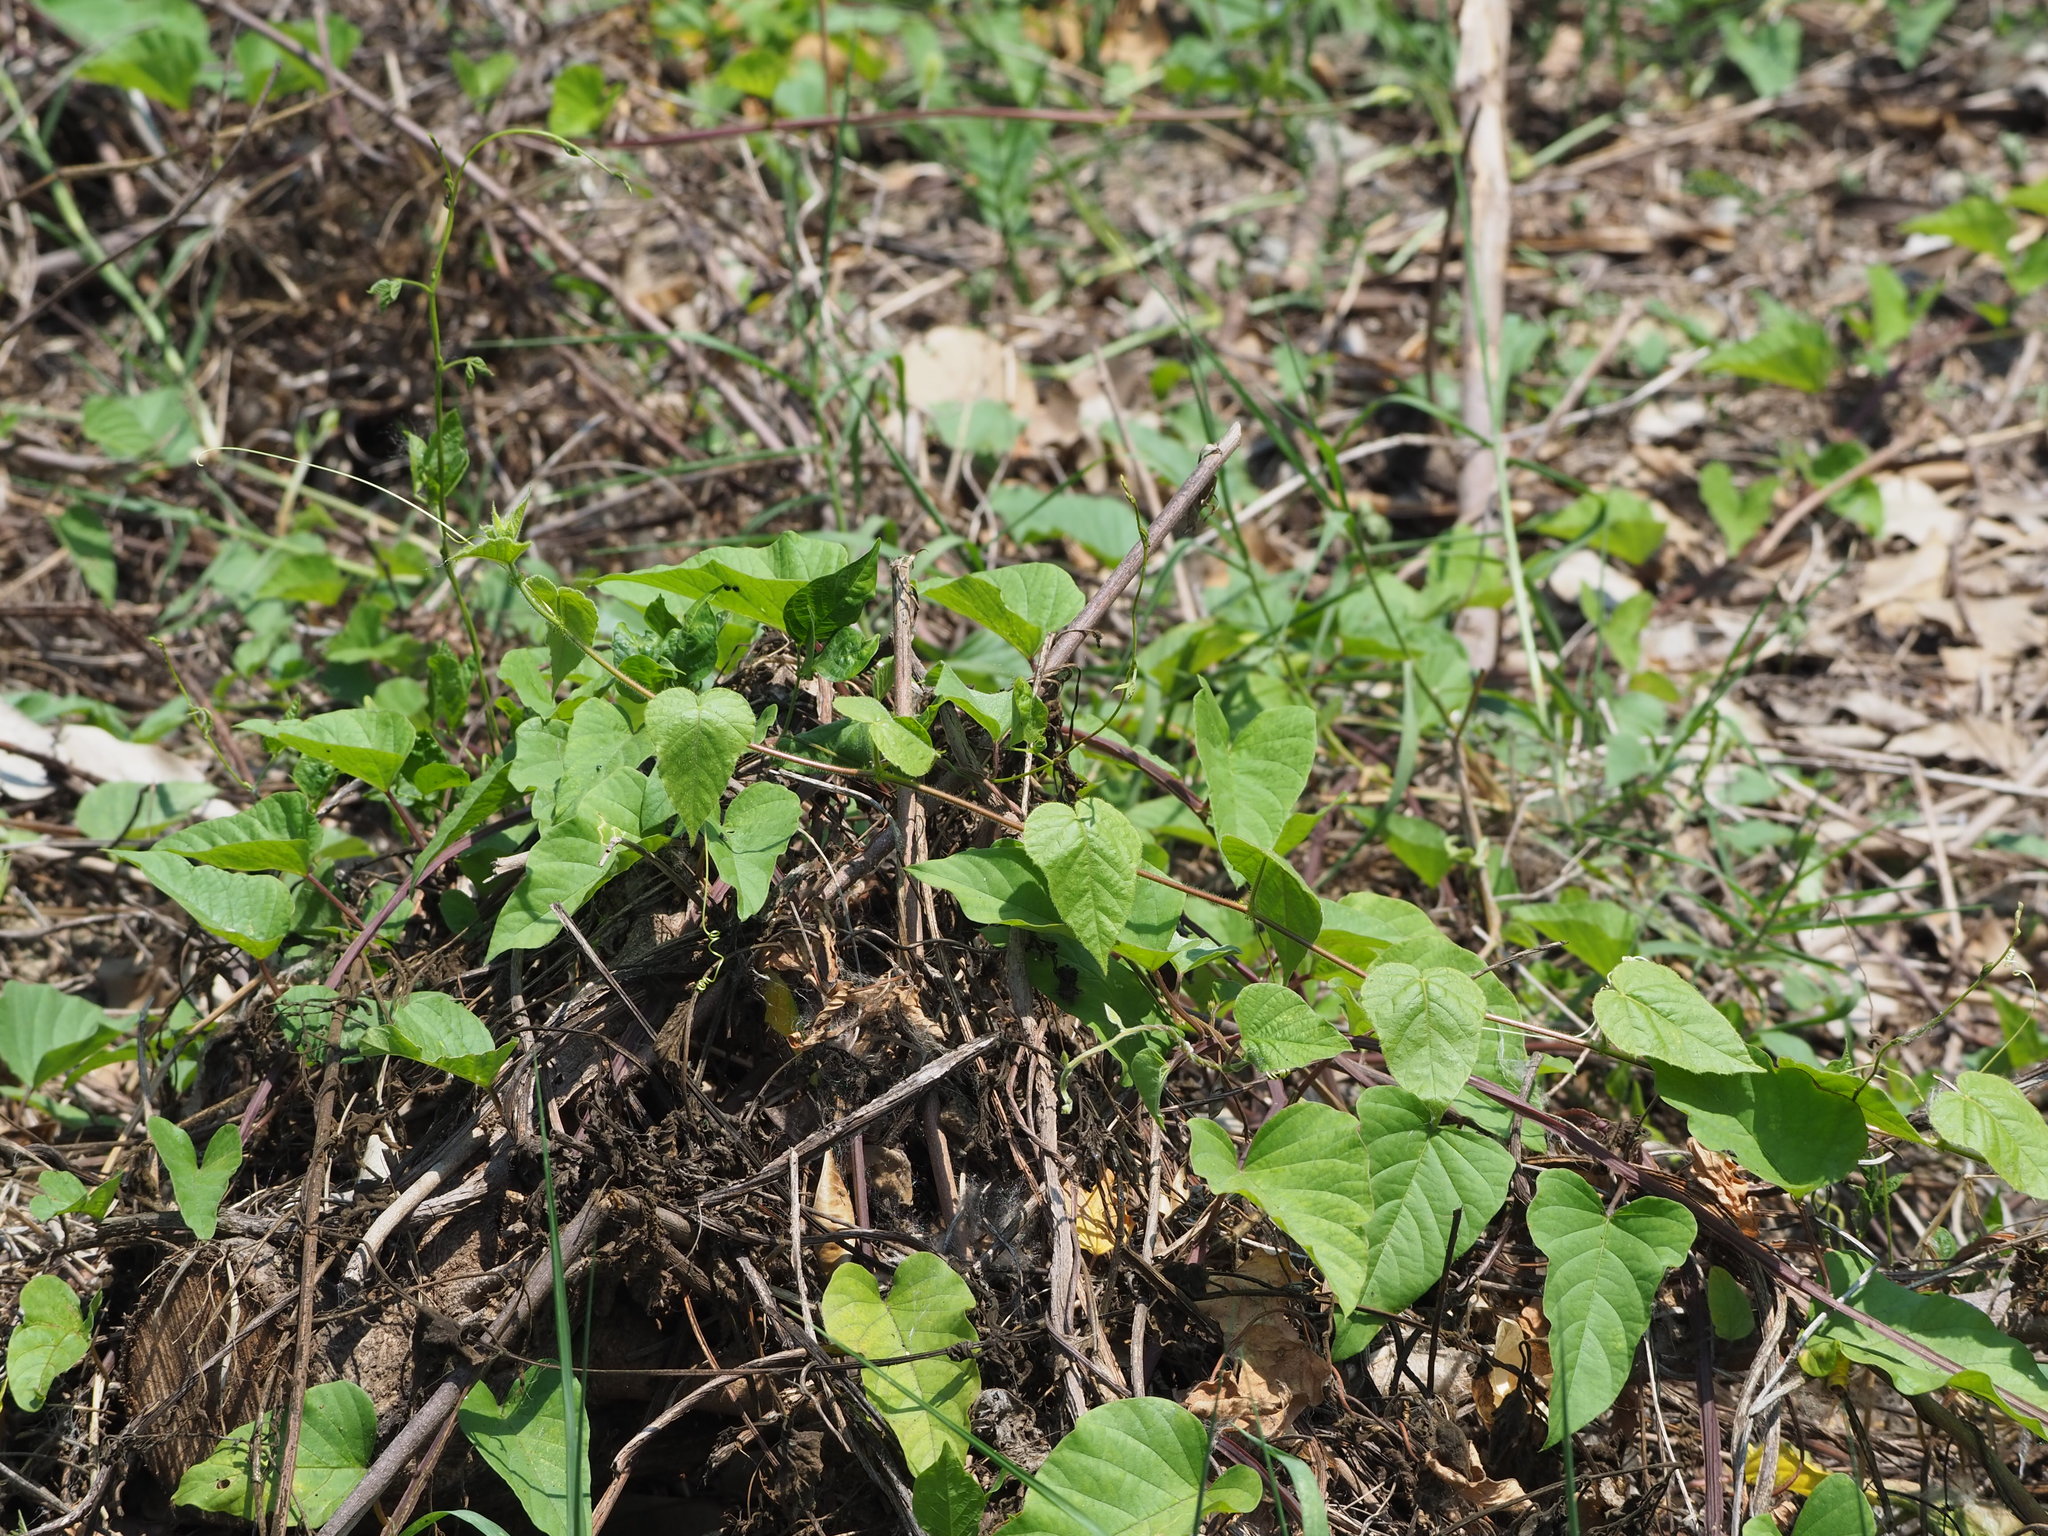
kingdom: Plantae
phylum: Tracheophyta
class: Magnoliopsida
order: Solanales
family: Convolvulaceae
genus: Operculina
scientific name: Operculina turpethum
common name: Transparent wood-rose
